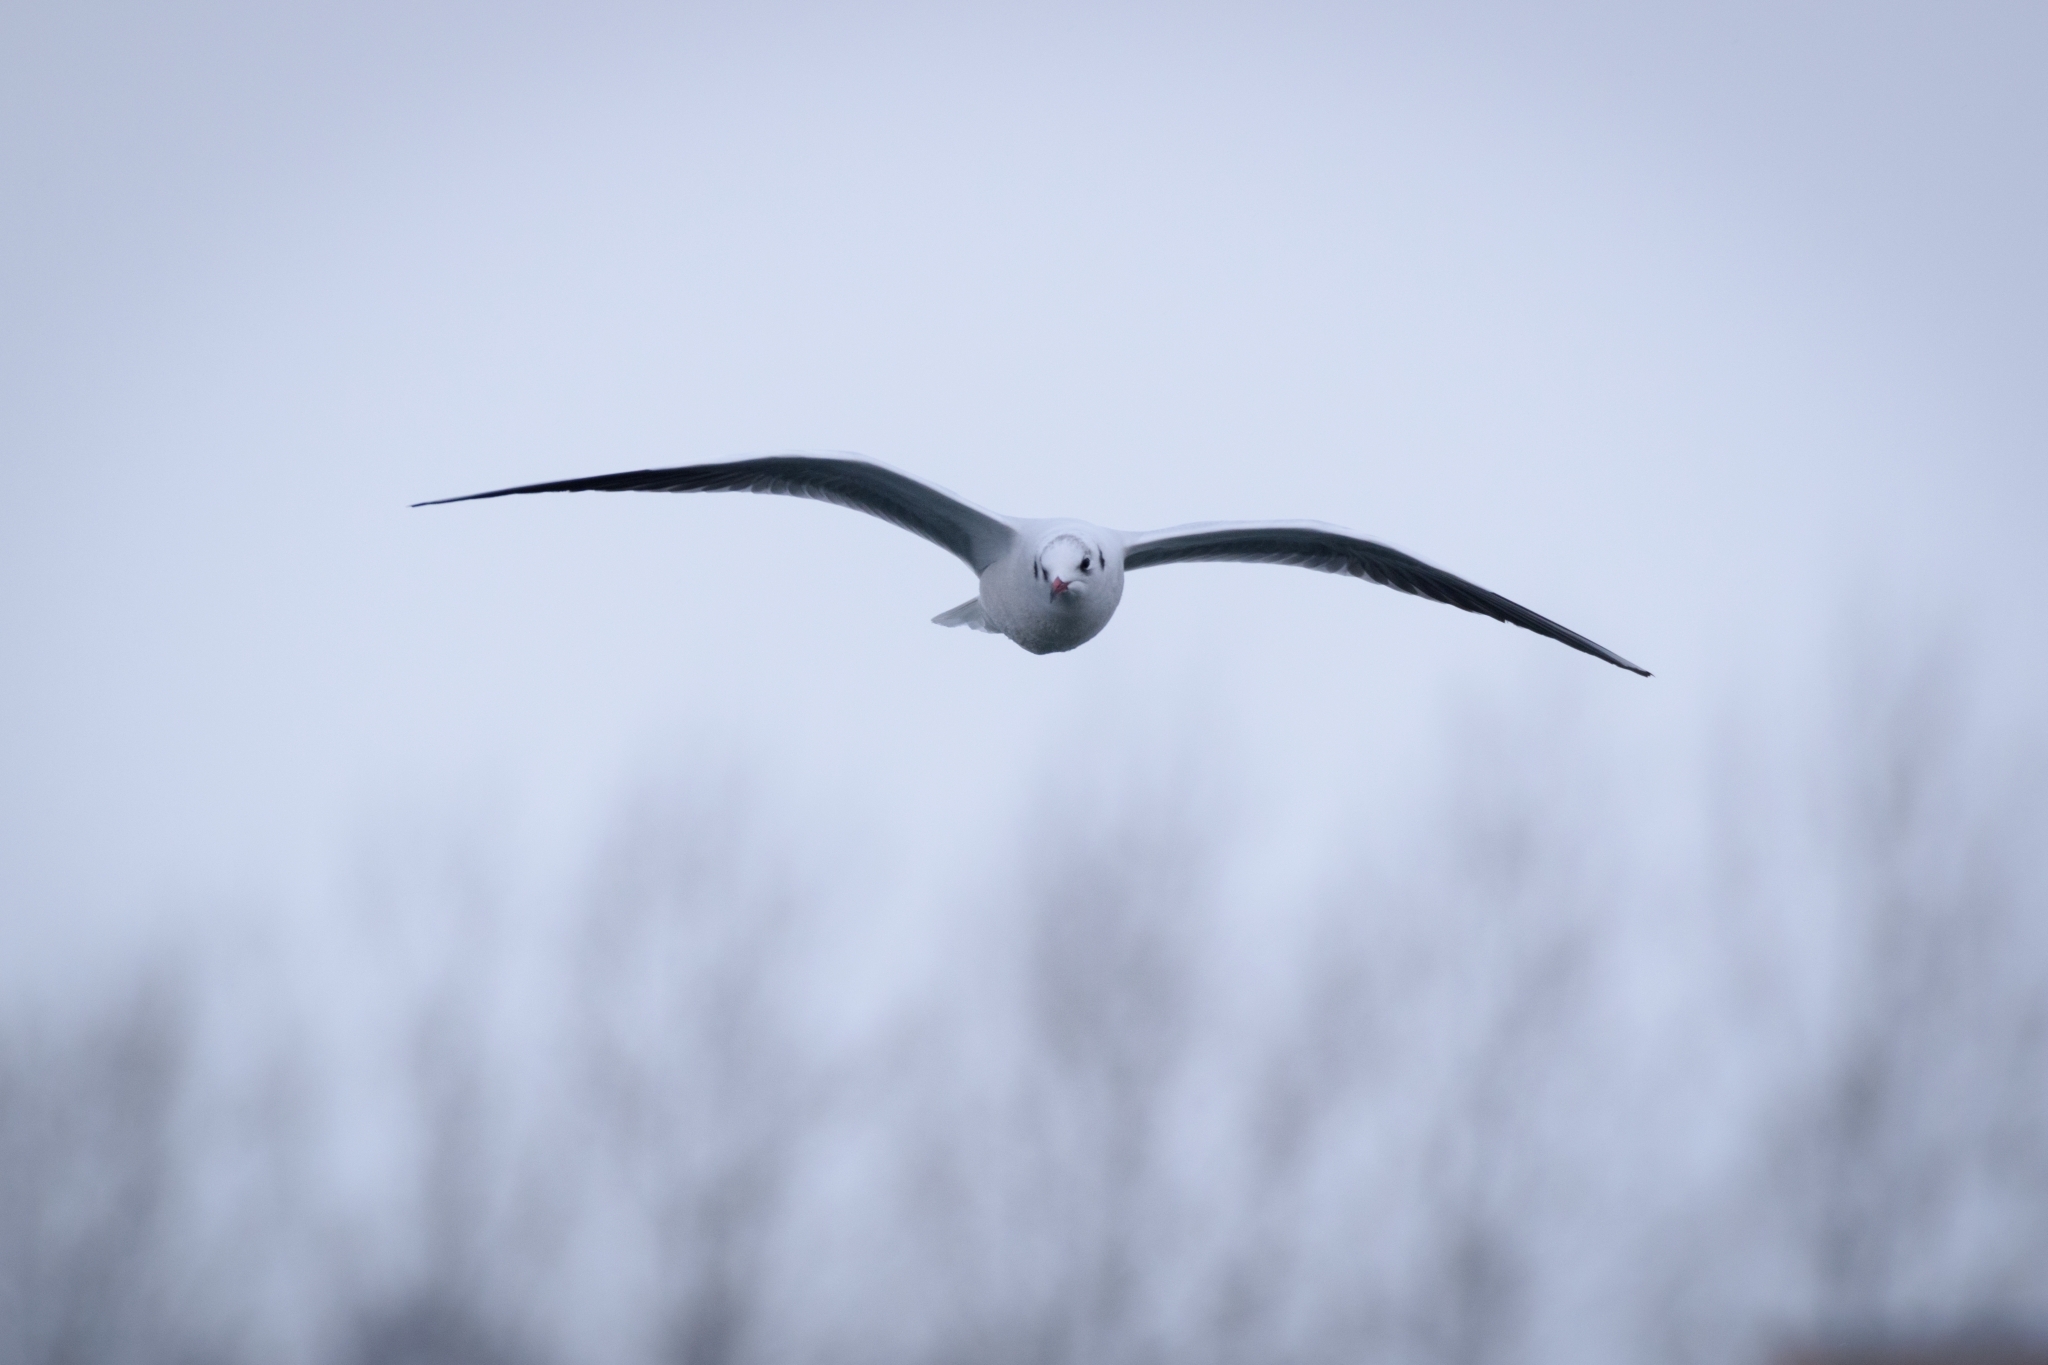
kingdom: Animalia
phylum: Chordata
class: Aves
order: Charadriiformes
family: Laridae
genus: Chroicocephalus
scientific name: Chroicocephalus ridibundus
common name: Black-headed gull
